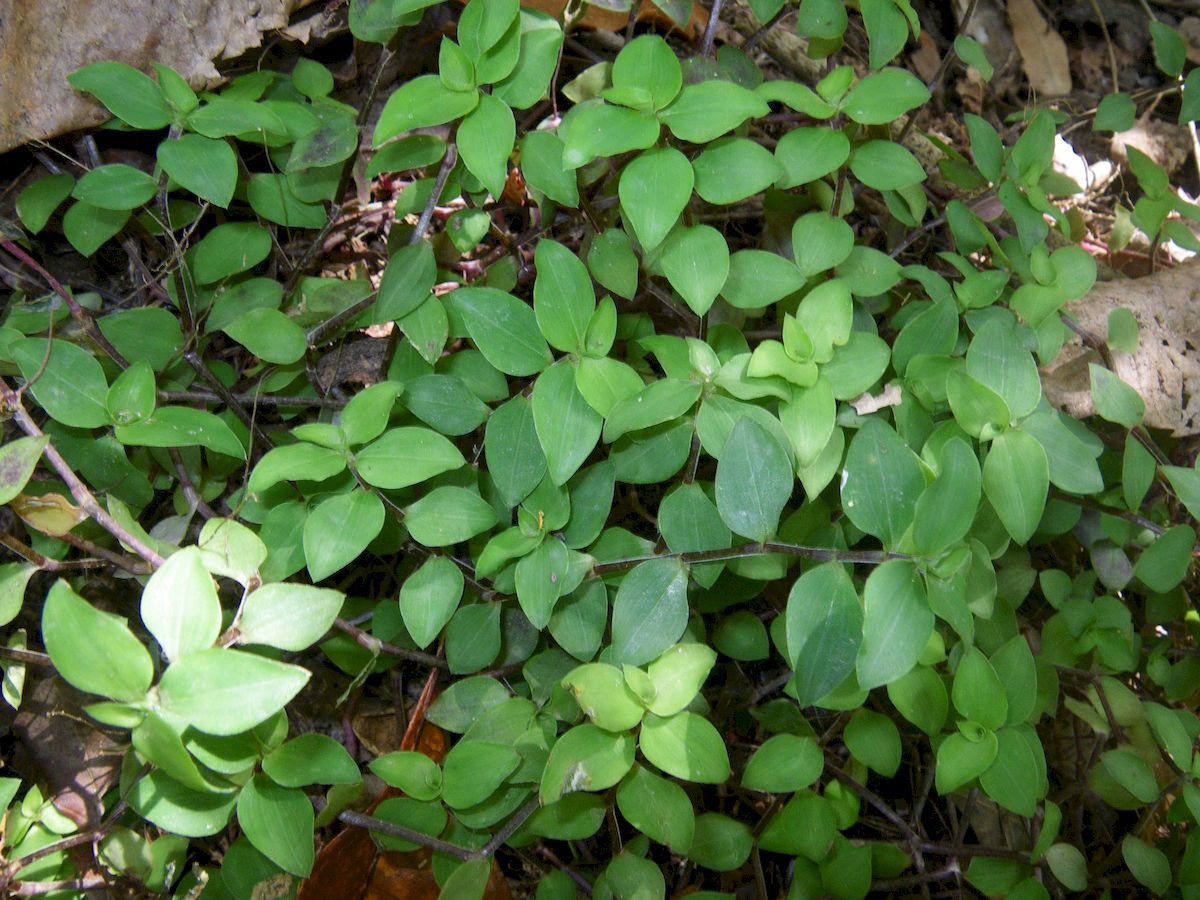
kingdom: Plantae
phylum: Tracheophyta
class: Liliopsida
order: Commelinales
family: Commelinaceae
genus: Callisia
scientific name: Callisia repens
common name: Creeping inchplant
